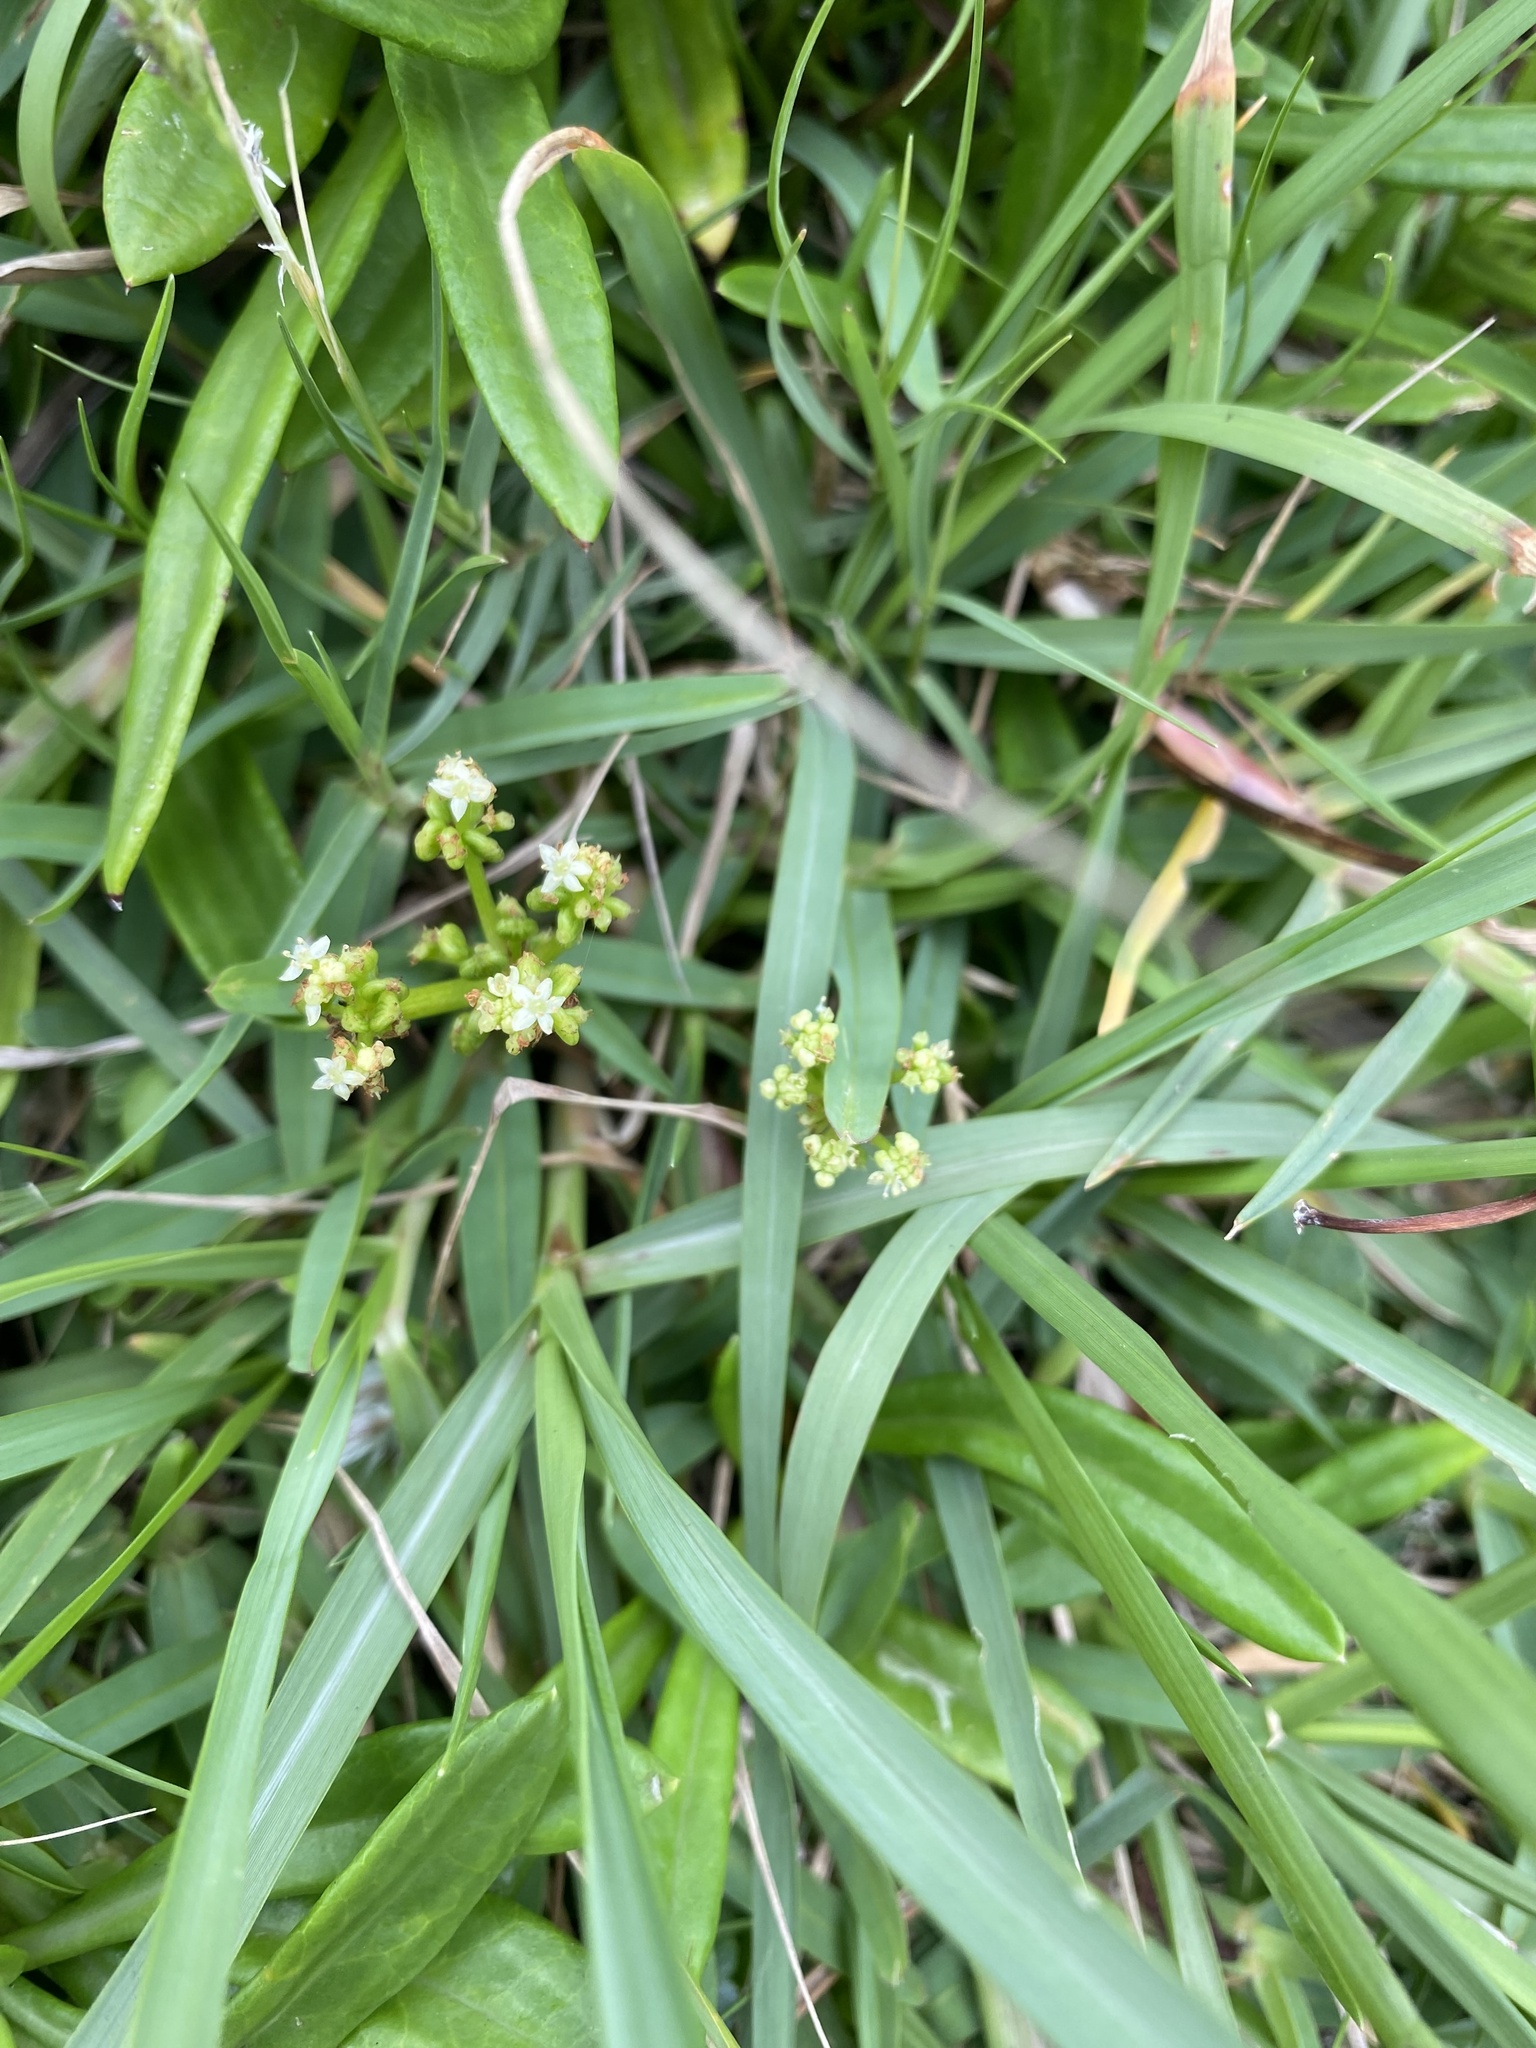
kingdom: Plantae
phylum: Tracheophyta
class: Magnoliopsida
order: Apiales
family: Araliaceae
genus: Hydrocotyle
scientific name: Hydrocotyle bonariensis
